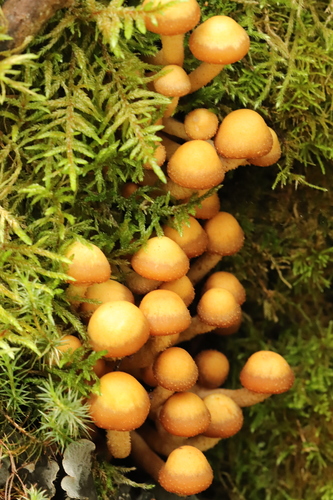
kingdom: Fungi
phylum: Basidiomycota
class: Agaricomycetes
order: Agaricales
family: Strophariaceae
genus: Kuehneromyces
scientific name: Kuehneromyces mutabilis
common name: Sheathed woodtuft
